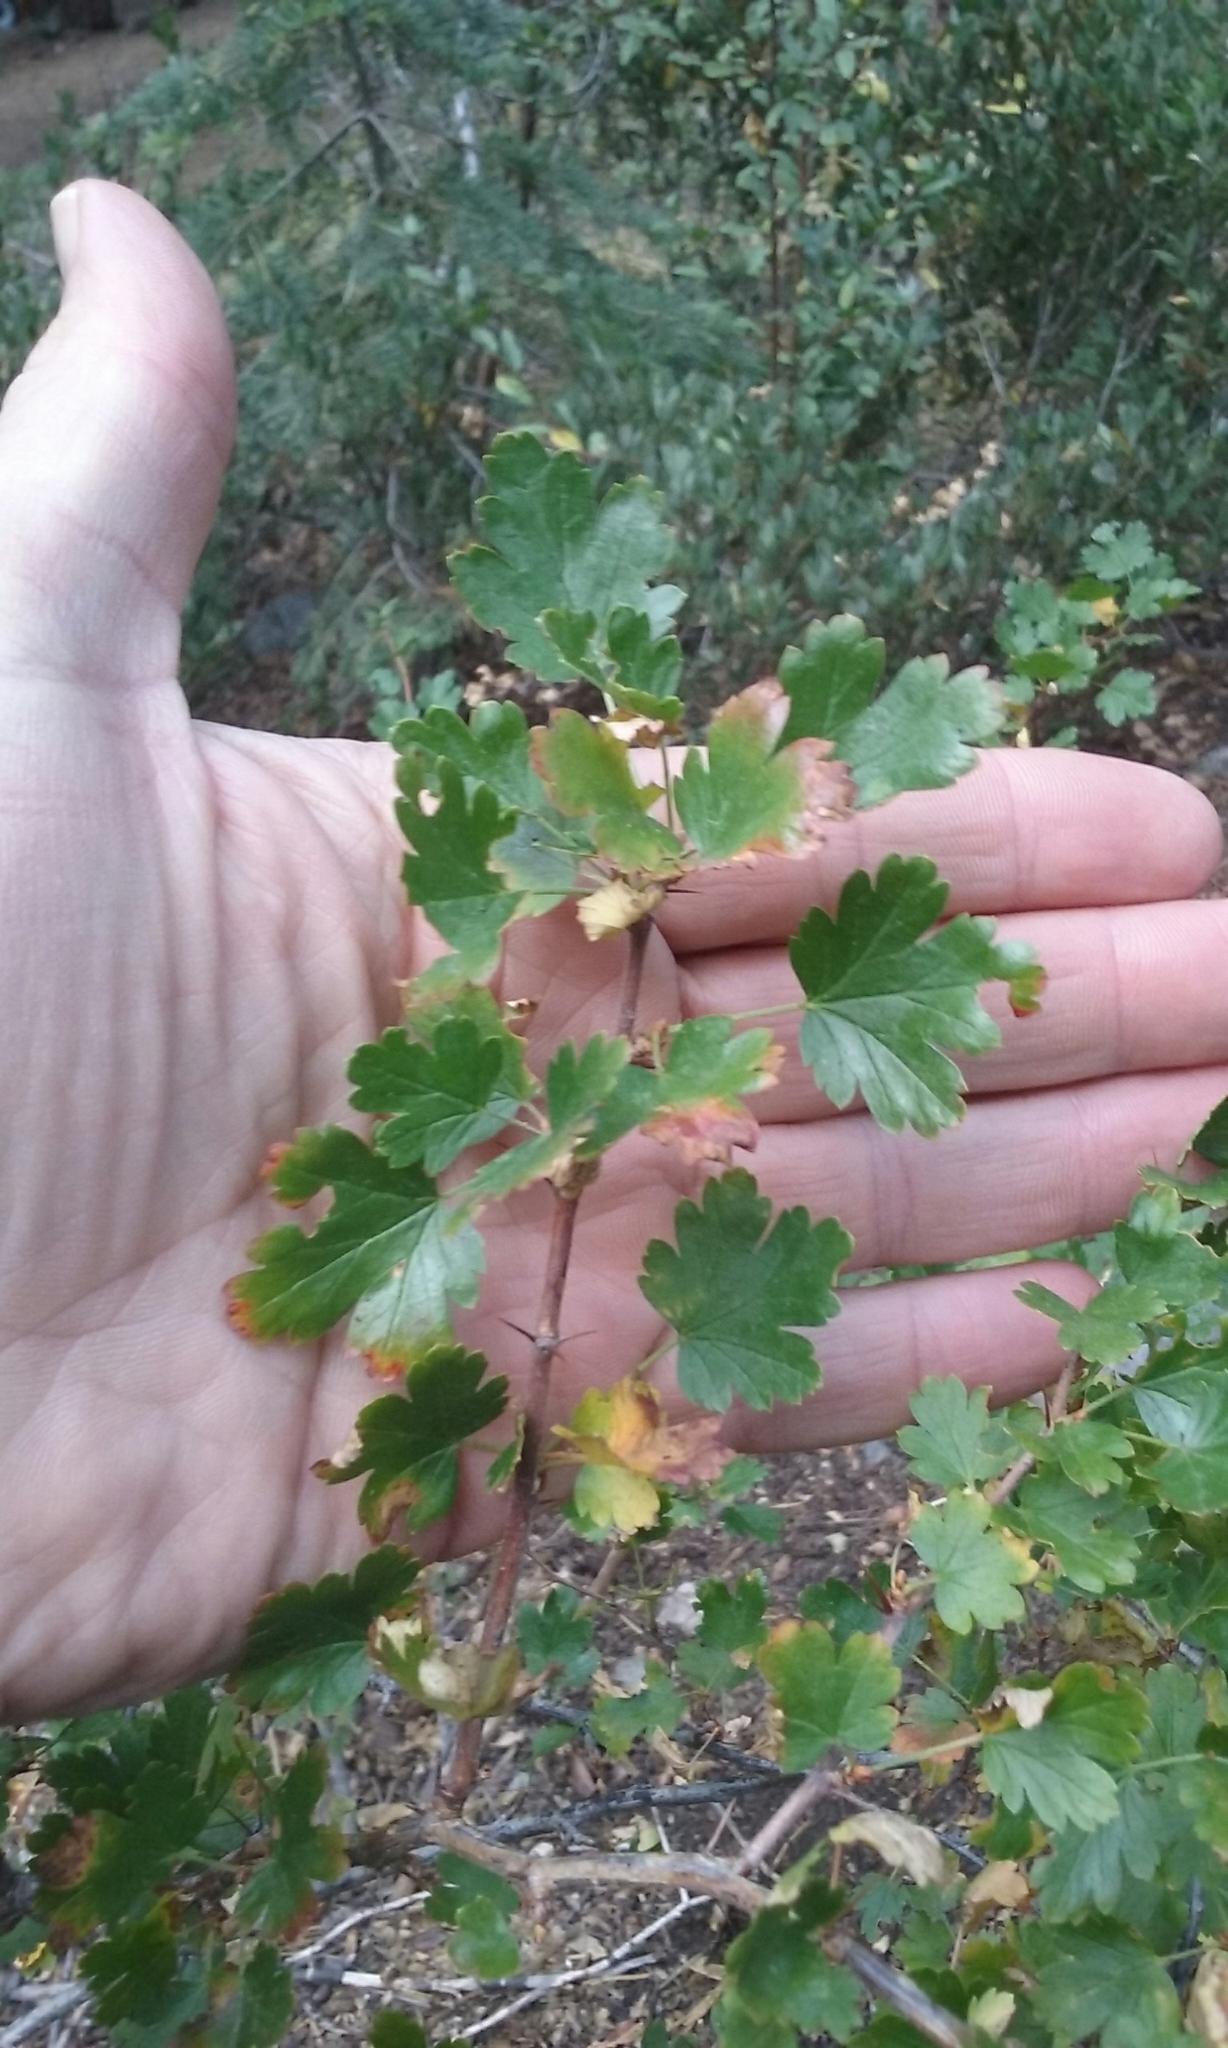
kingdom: Plantae
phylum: Tracheophyta
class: Magnoliopsida
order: Saxifragales
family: Grossulariaceae
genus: Ribes
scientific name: Ribes roezlii
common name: Sierra gooseberry
